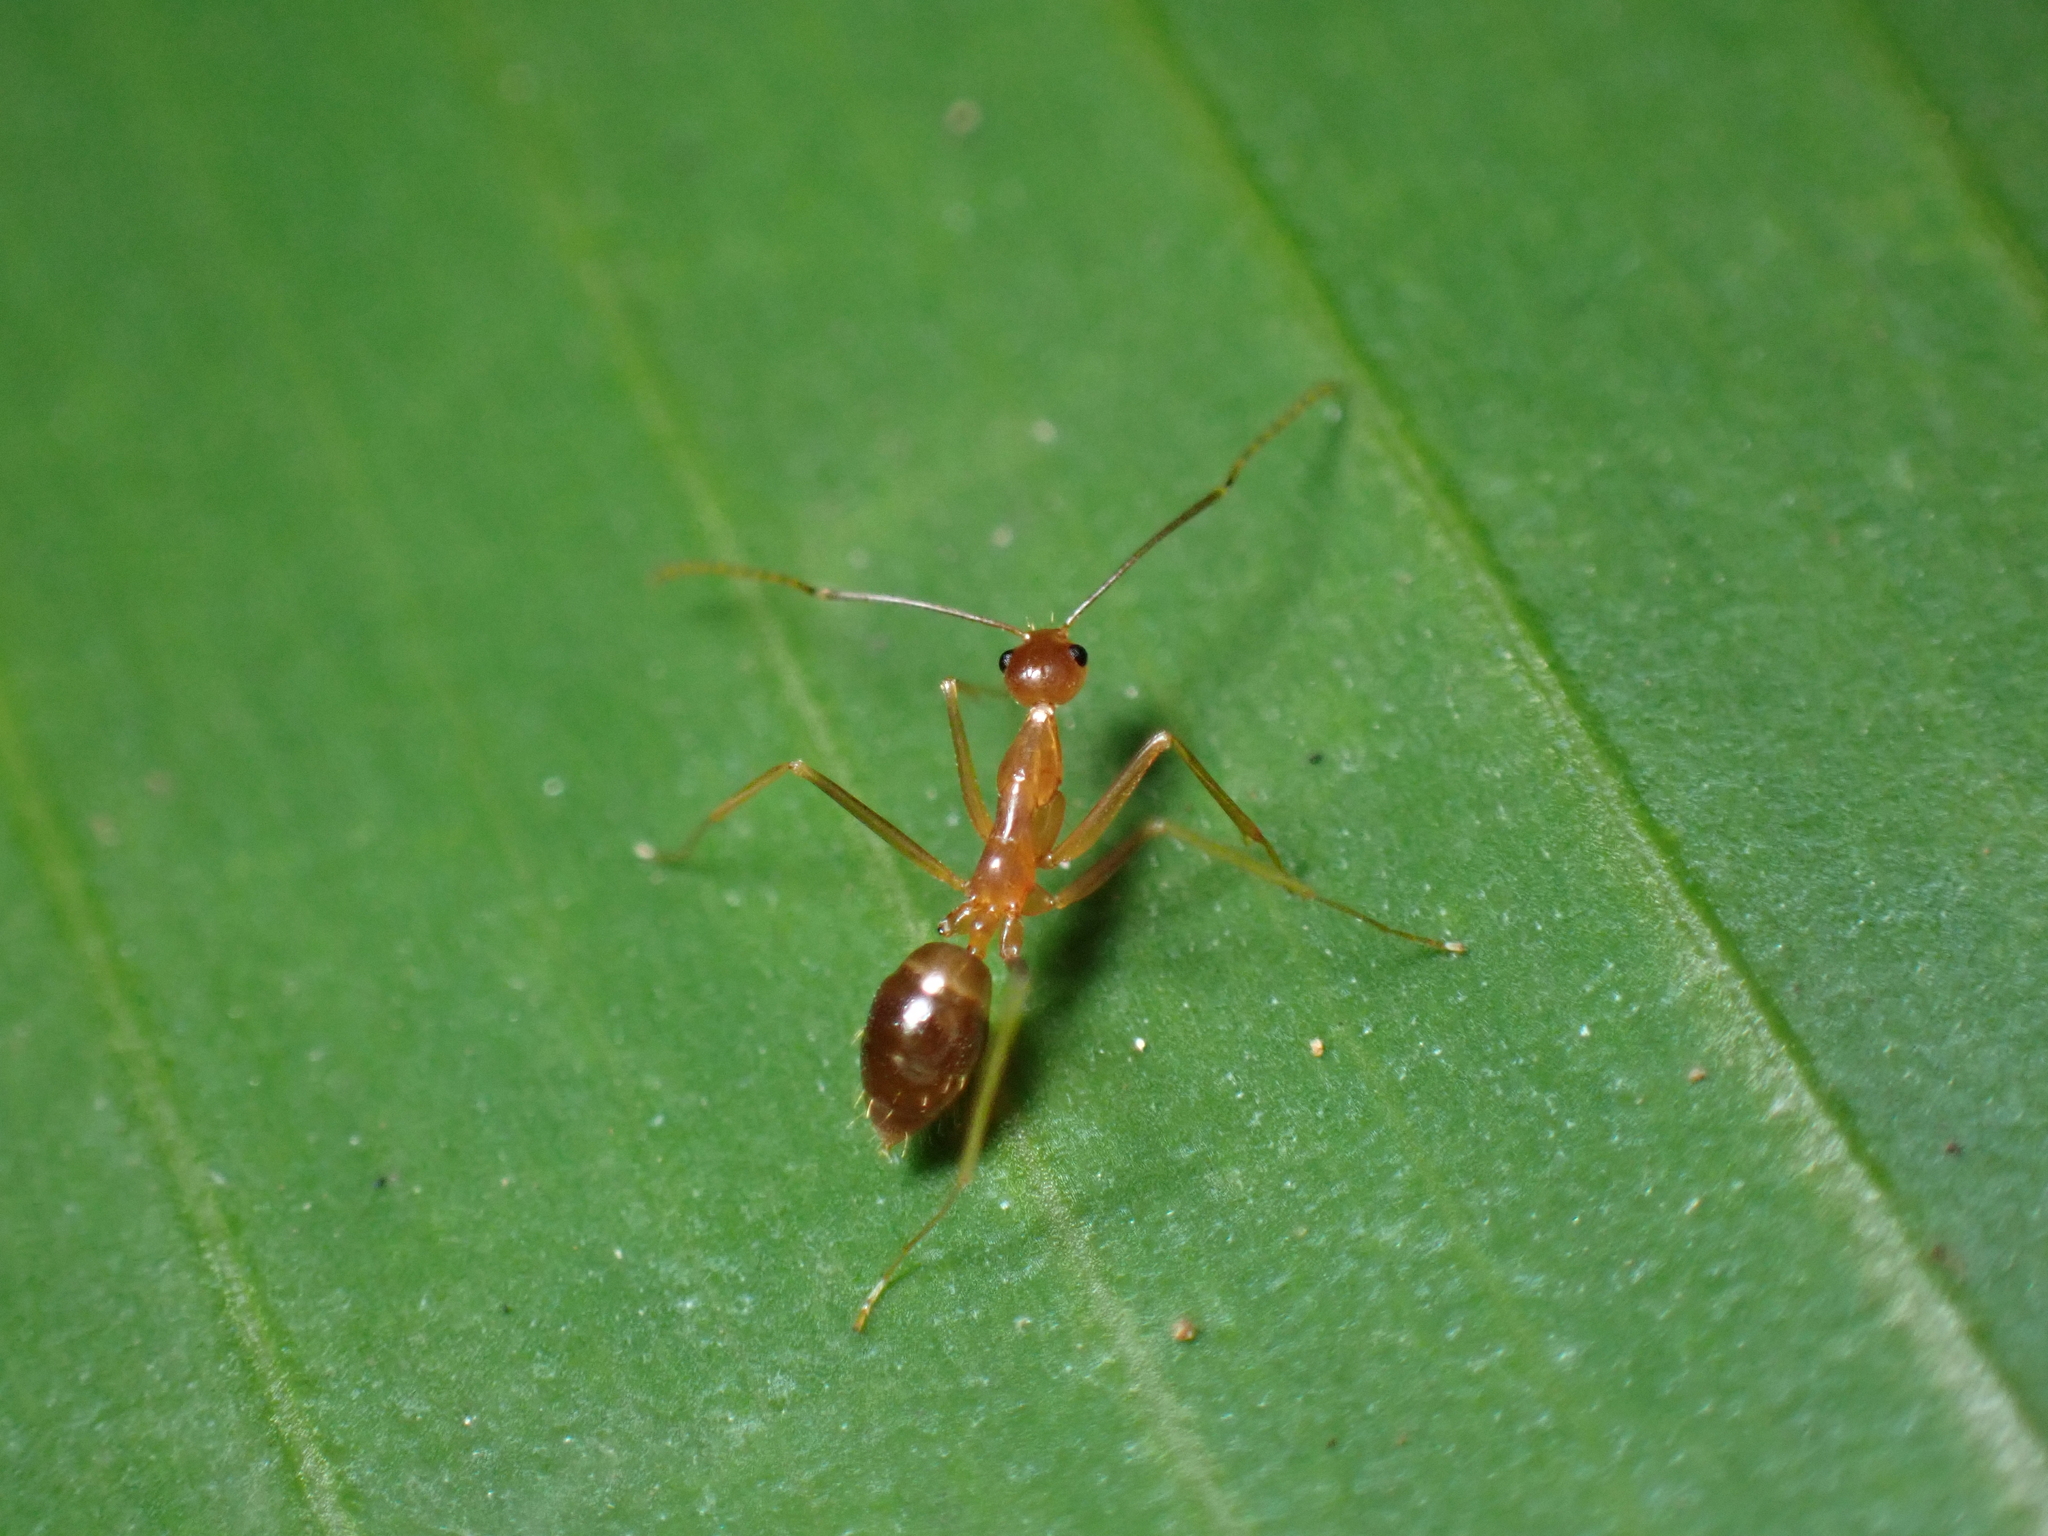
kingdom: Animalia
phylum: Arthropoda
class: Insecta
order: Hymenoptera
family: Formicidae
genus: Anoplolepis
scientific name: Anoplolepis gracilipes
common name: Ant
